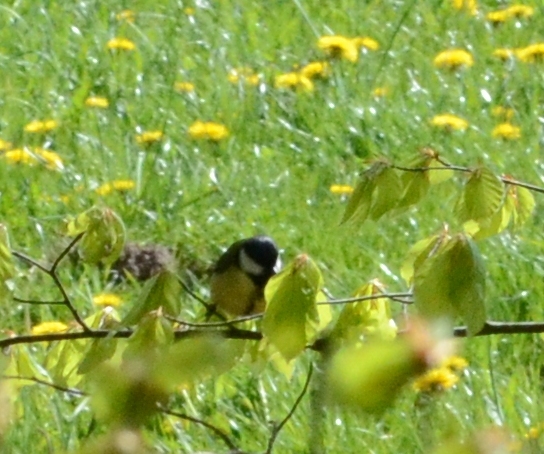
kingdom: Animalia
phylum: Chordata
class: Aves
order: Passeriformes
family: Paridae
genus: Parus
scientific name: Parus major
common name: Great tit
